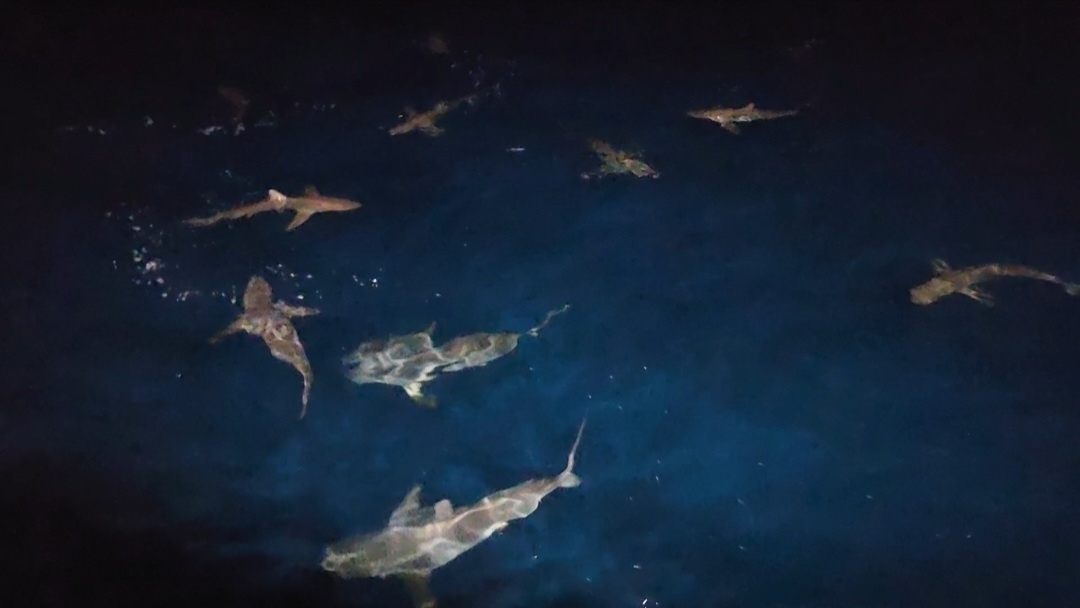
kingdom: Animalia
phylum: Chordata
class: Elasmobranchii
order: Carcharhiniformes
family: Carcharhinidae
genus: Carcharhinus
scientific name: Carcharhinus
